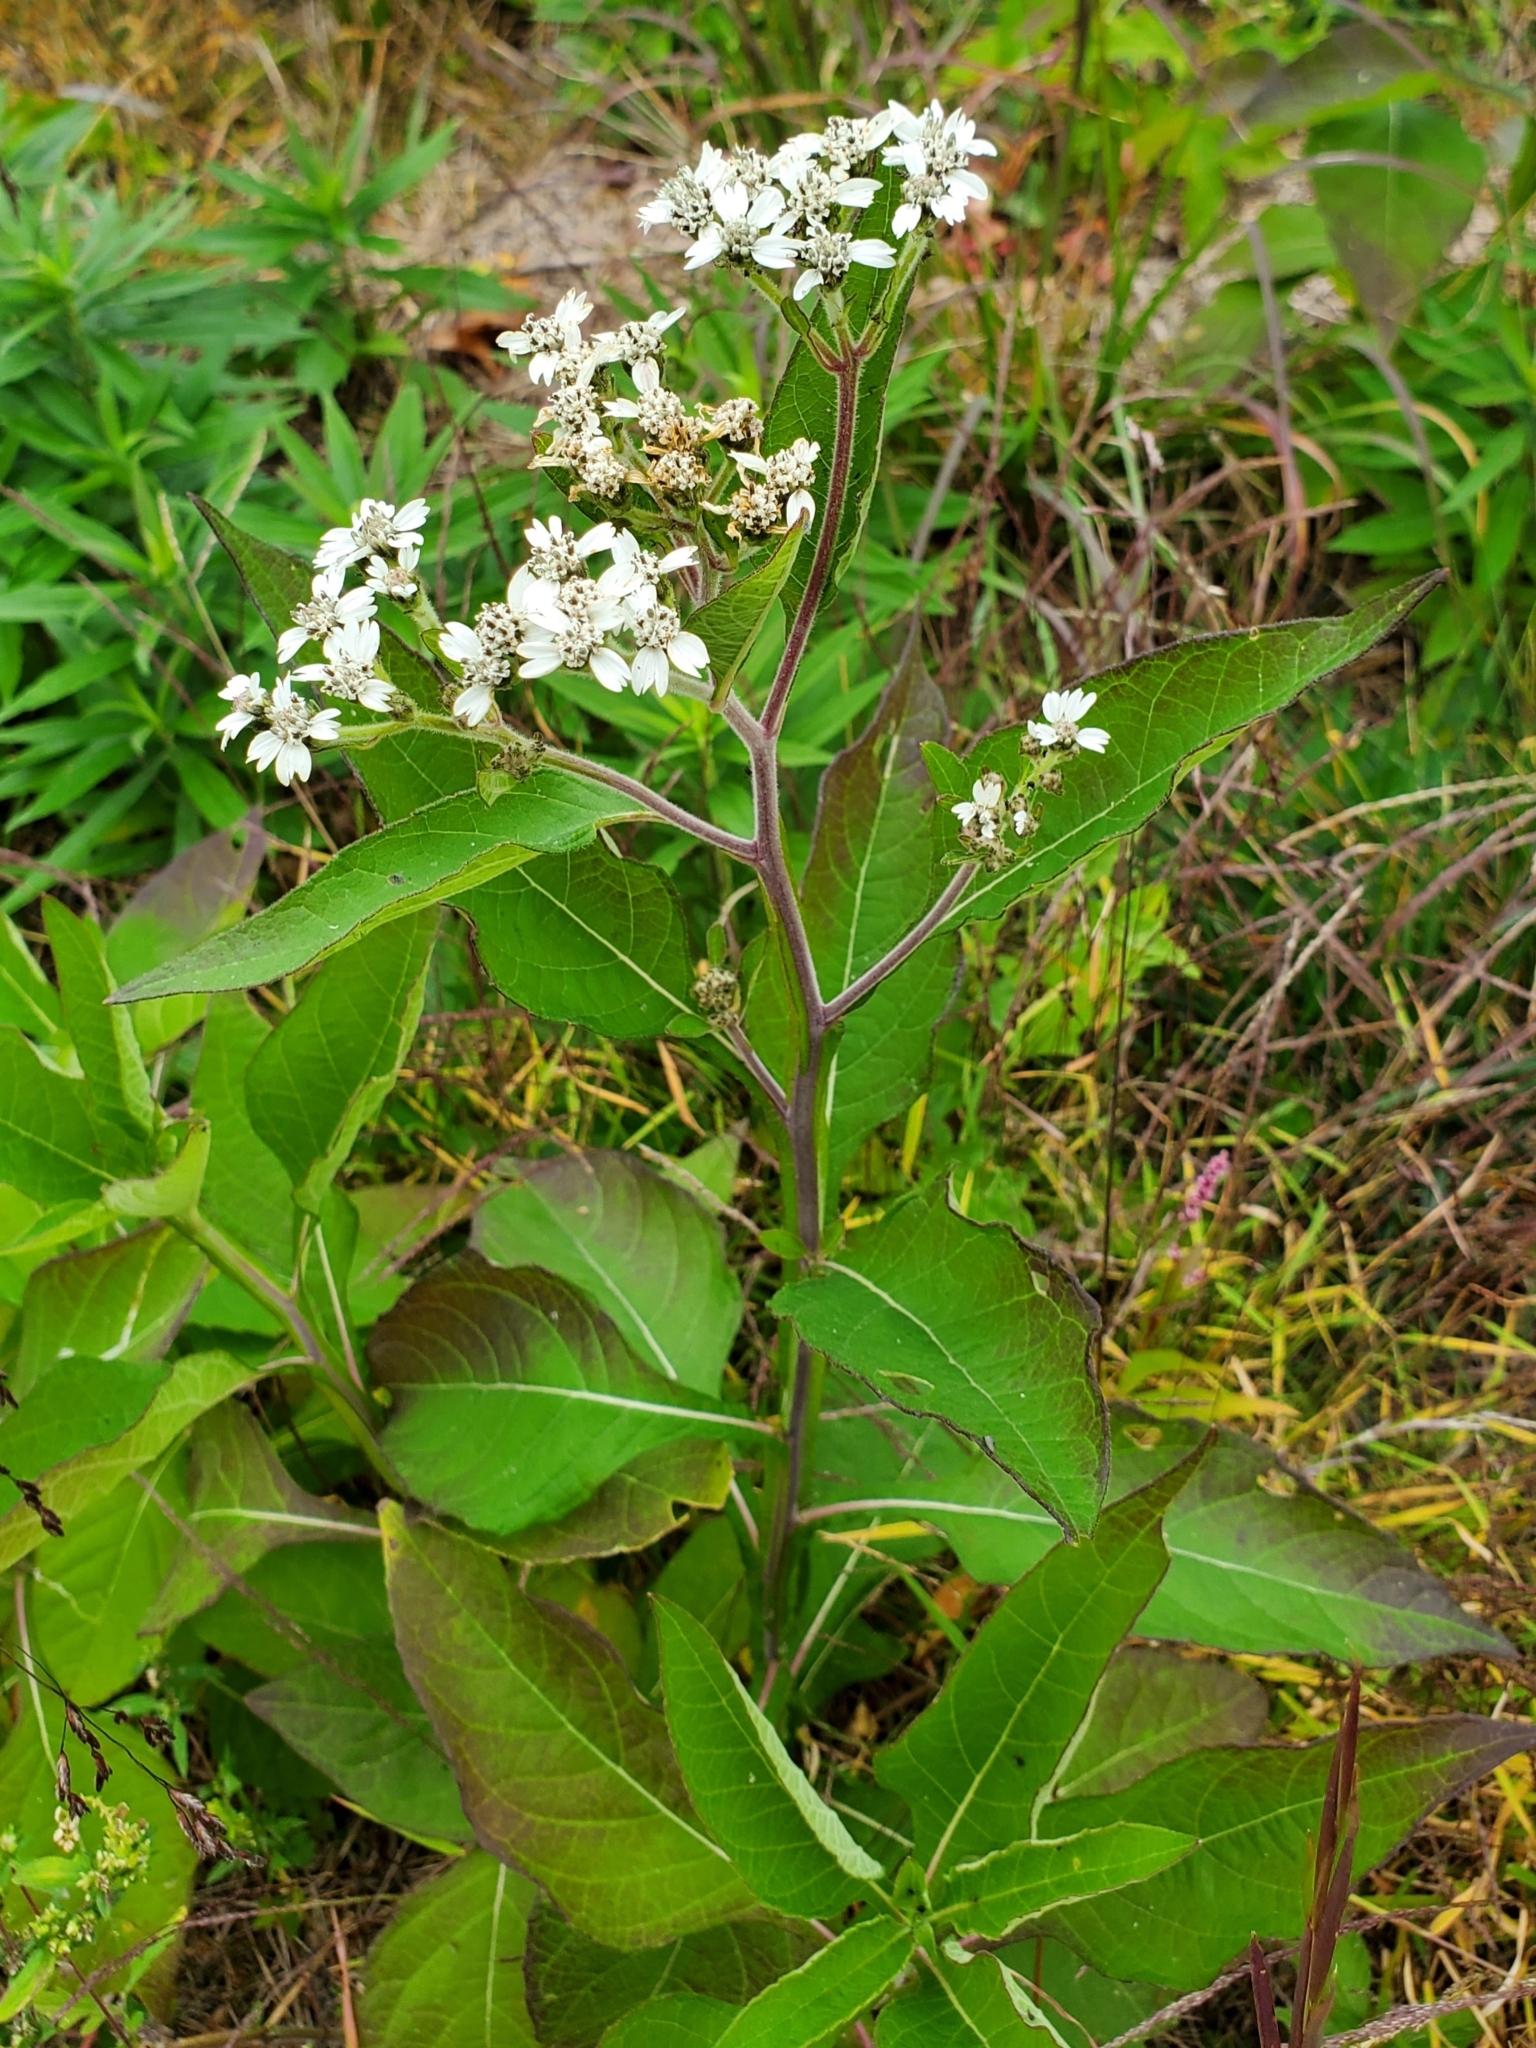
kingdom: Plantae
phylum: Tracheophyta
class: Magnoliopsida
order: Asterales
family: Asteraceae
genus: Verbesina
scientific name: Verbesina virginica
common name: Frostweed
